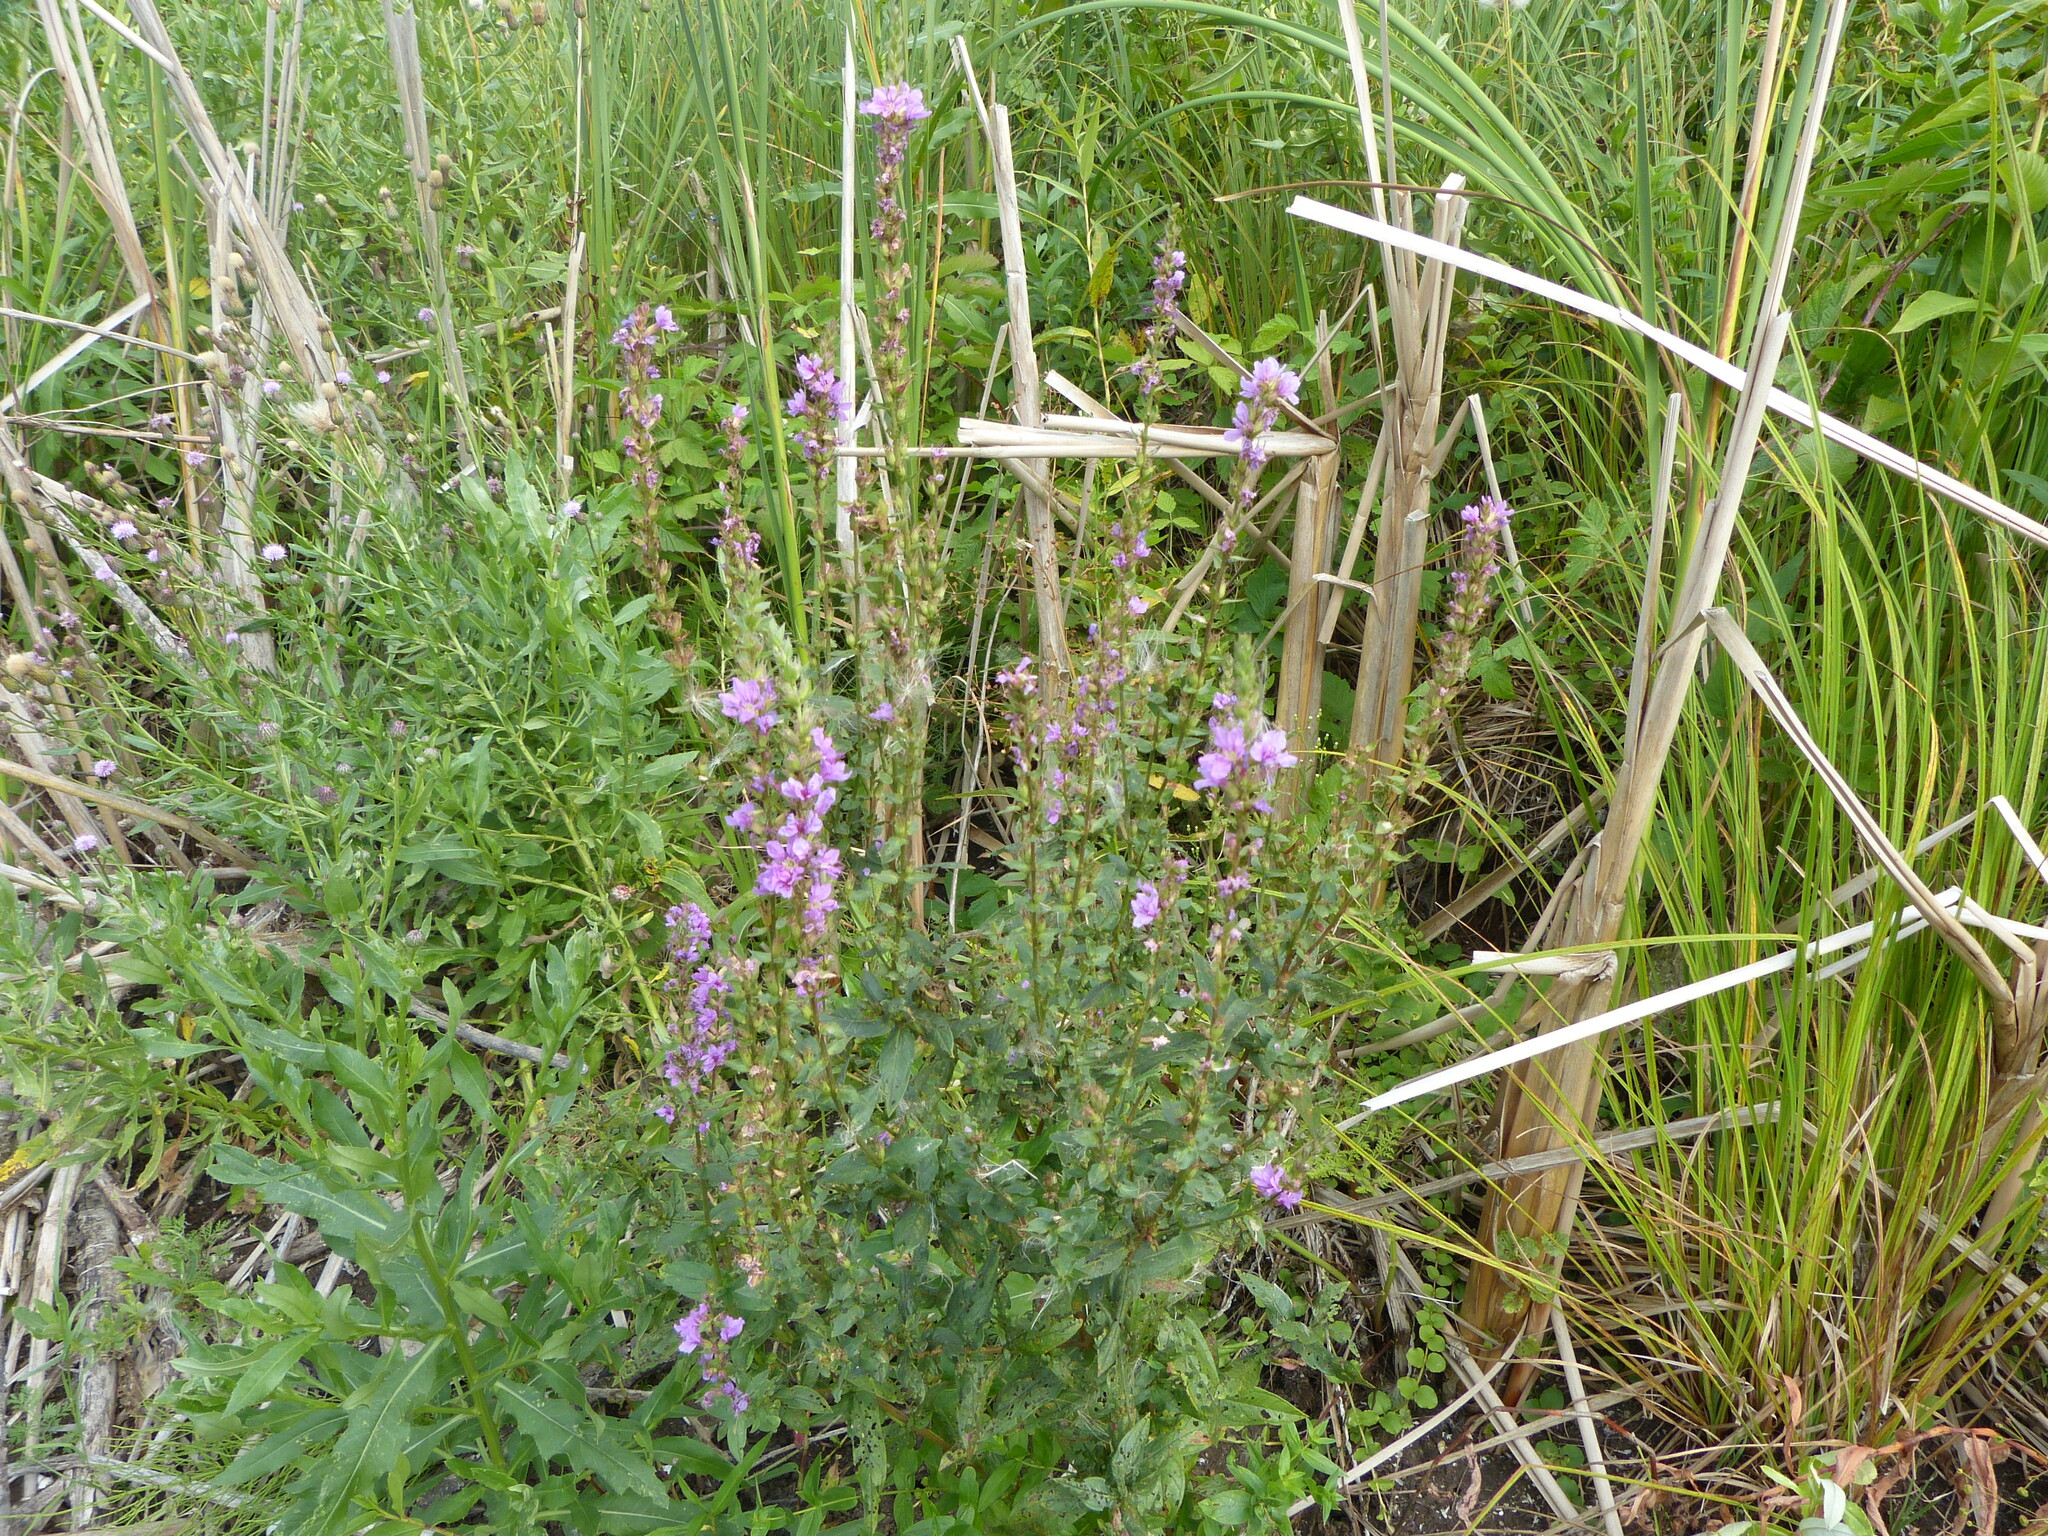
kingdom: Plantae
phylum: Tracheophyta
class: Magnoliopsida
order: Myrtales
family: Lythraceae
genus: Lythrum
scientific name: Lythrum salicaria
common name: Purple loosestrife
